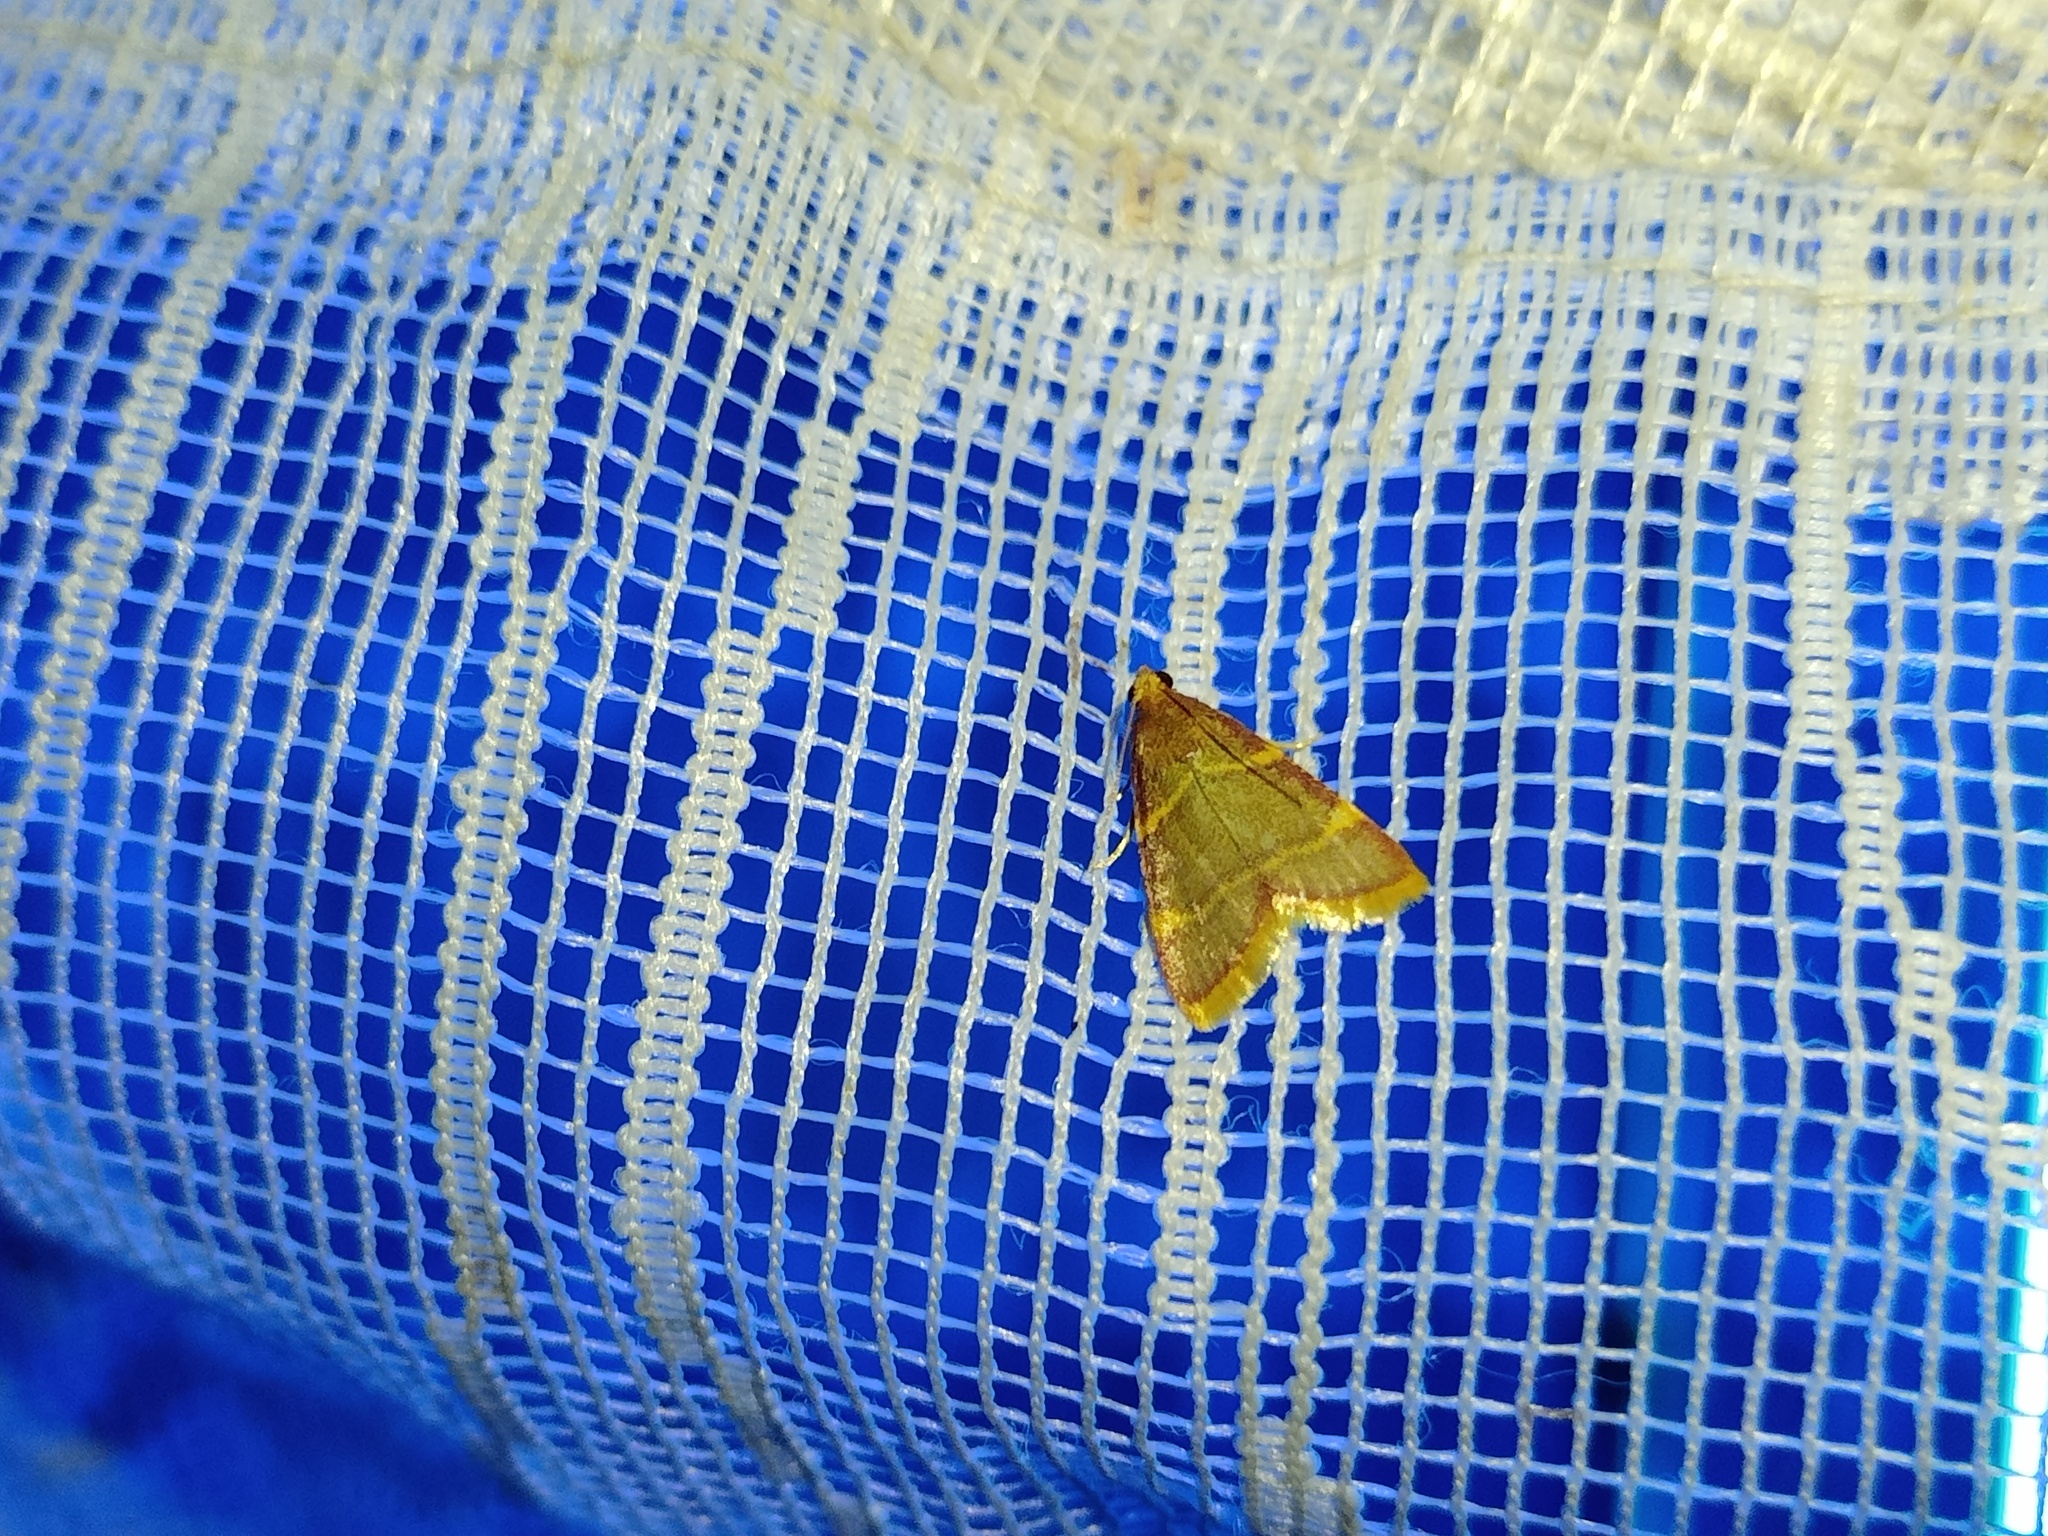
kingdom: Animalia
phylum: Arthropoda
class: Insecta
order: Lepidoptera
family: Pyralidae
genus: Hypsopygia
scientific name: Hypsopygia costalis
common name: Gold triangle
